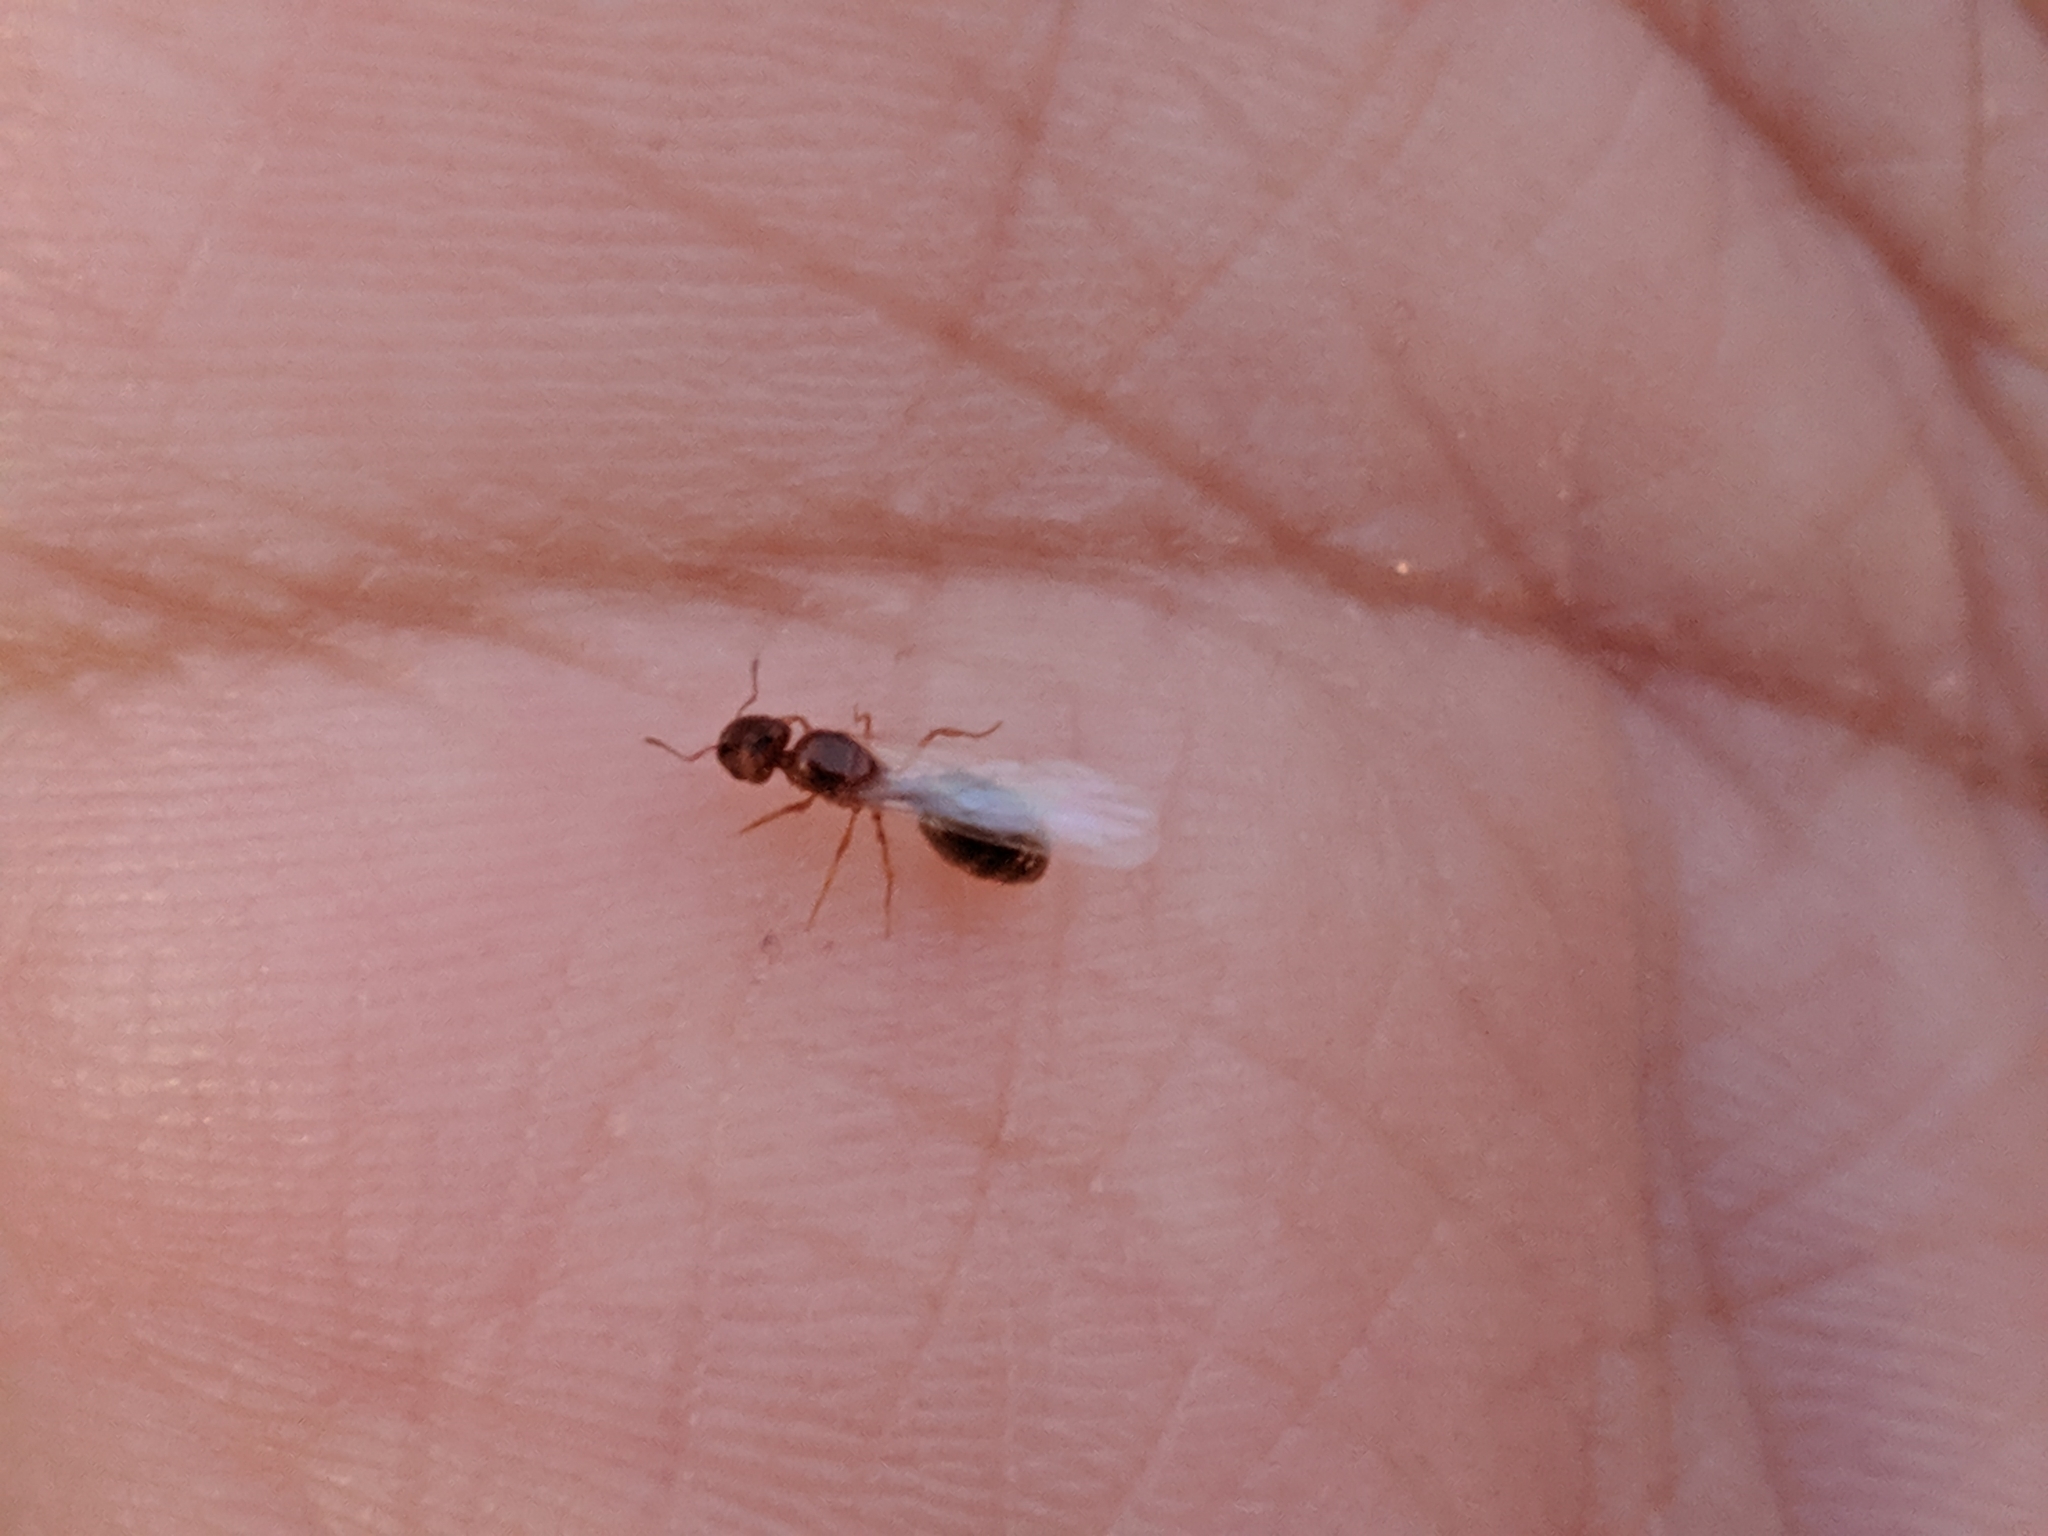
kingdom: Animalia
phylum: Arthropoda
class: Insecta
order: Hymenoptera
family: Formicidae
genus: Pheidole
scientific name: Pheidole bicarinata
